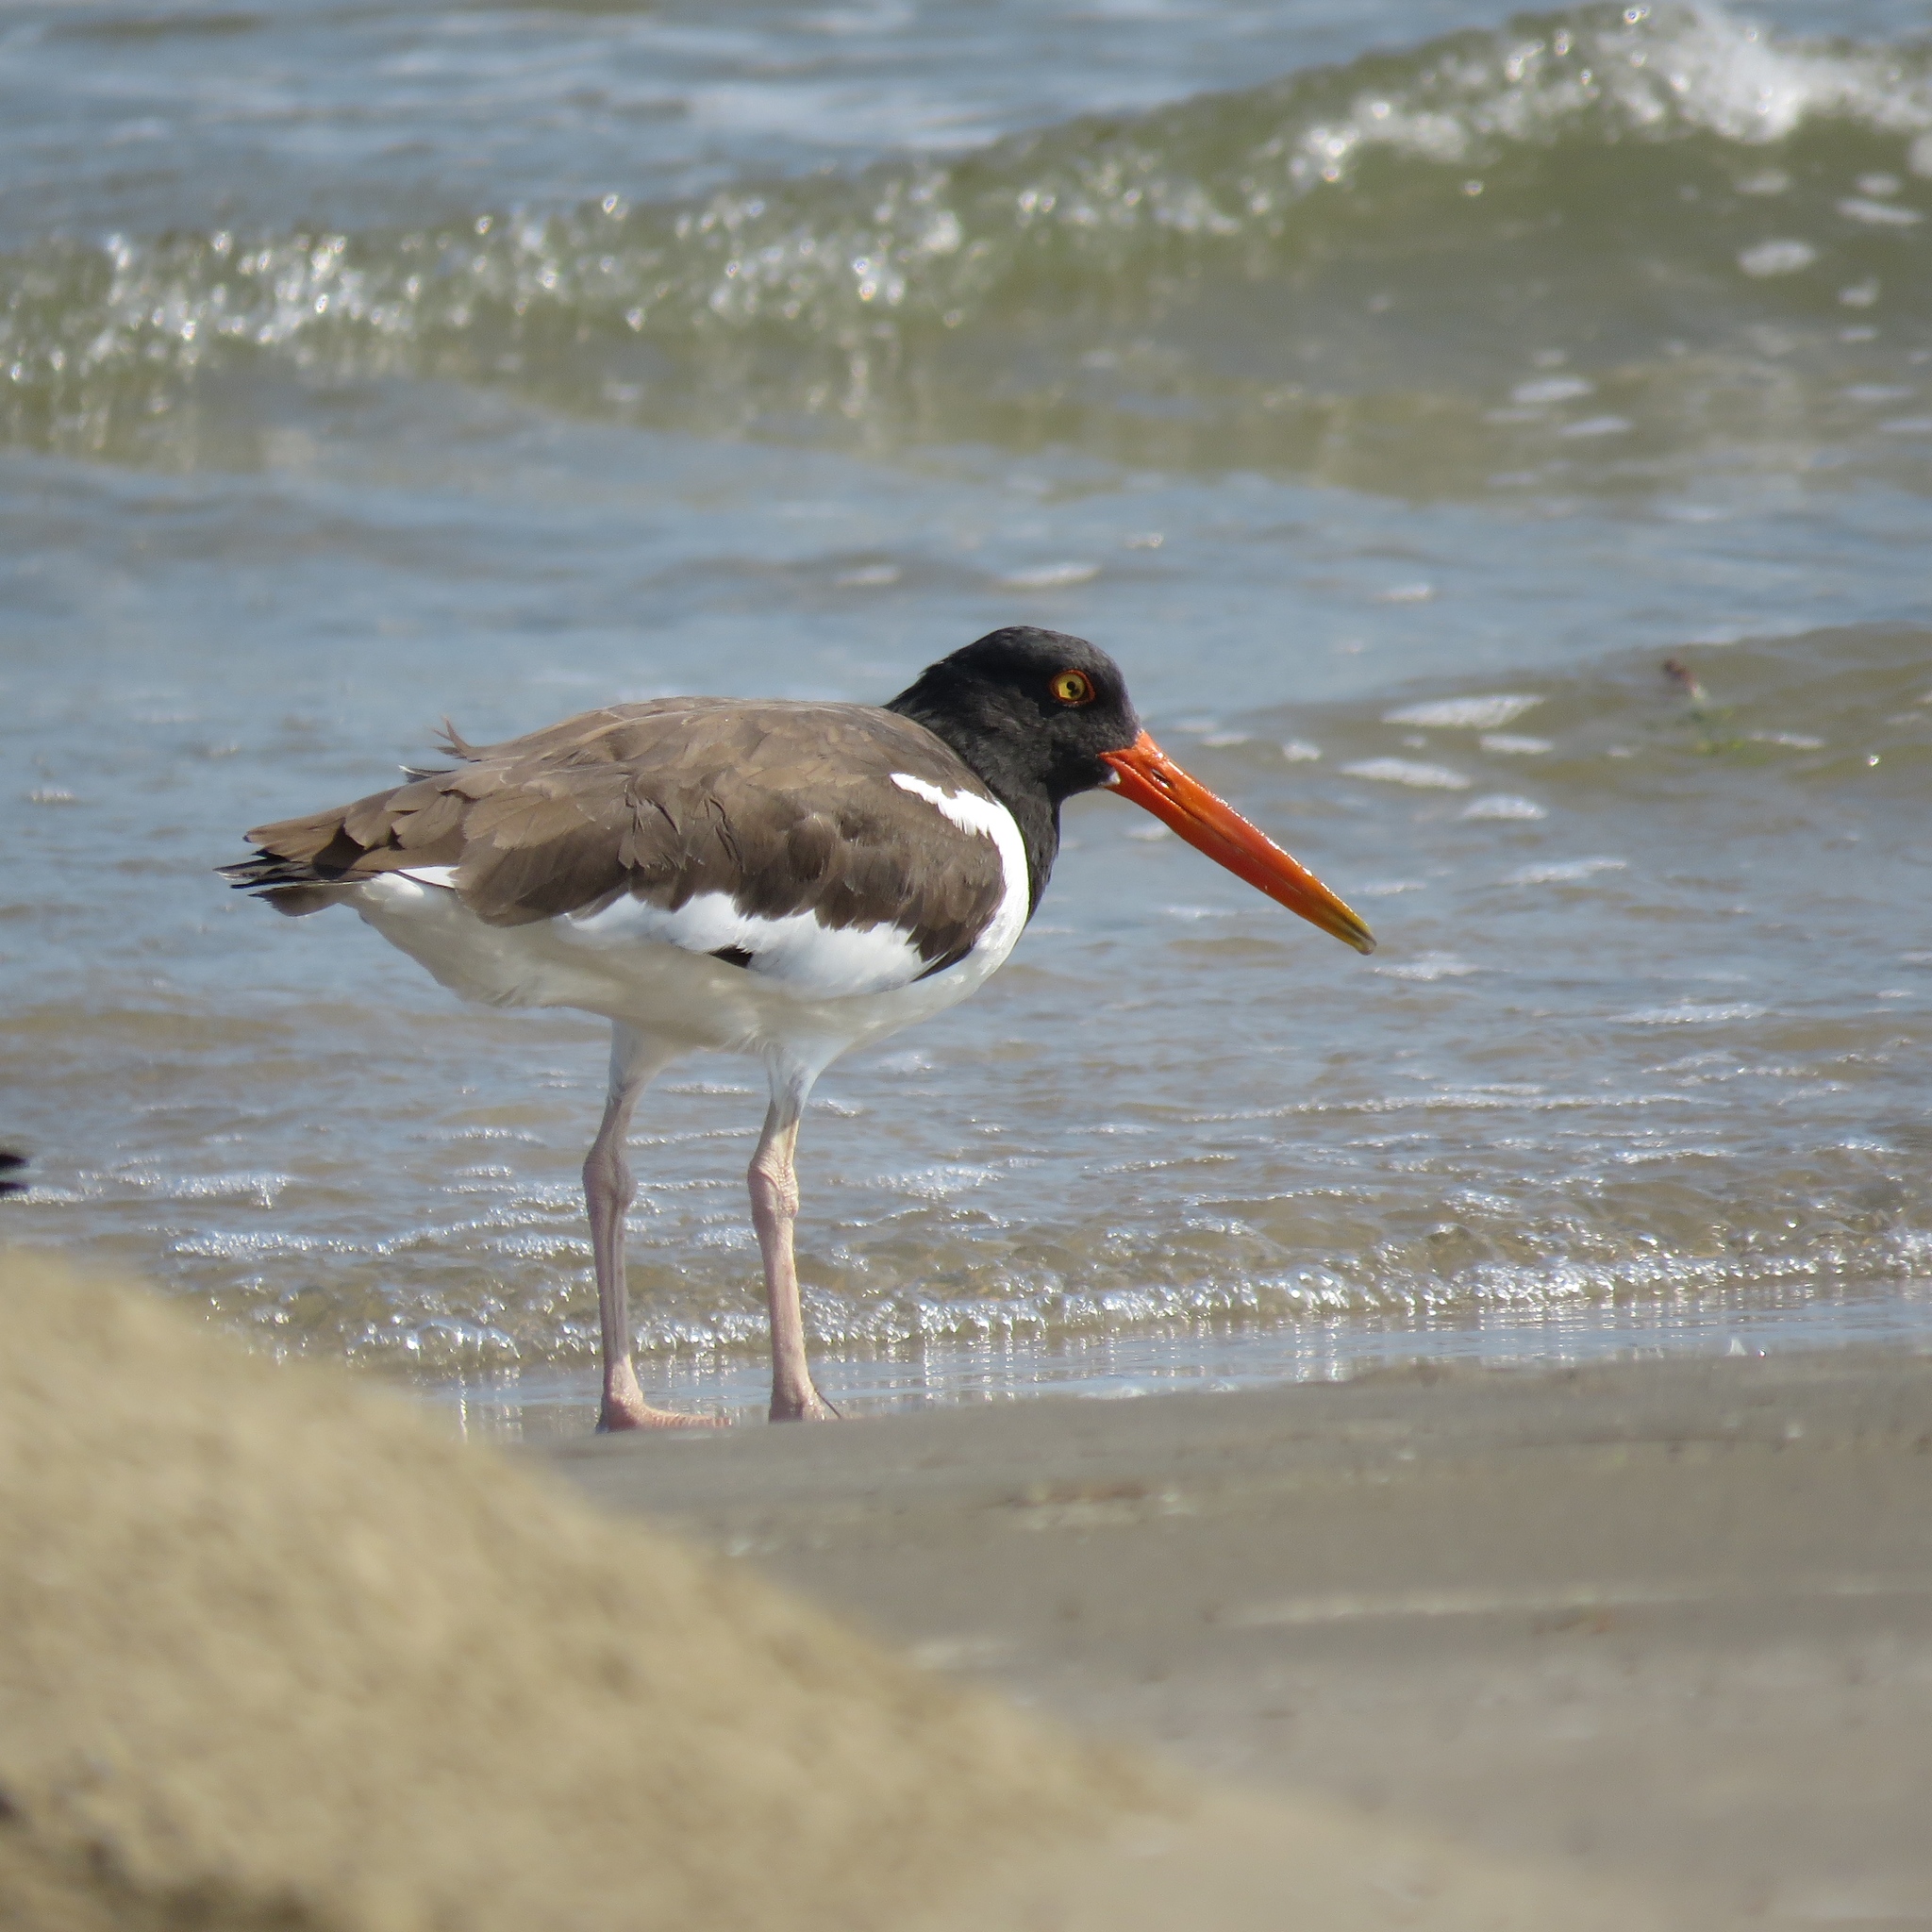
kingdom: Animalia
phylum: Chordata
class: Aves
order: Charadriiformes
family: Haematopodidae
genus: Haematopus
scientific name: Haematopus palliatus
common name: American oystercatcher
